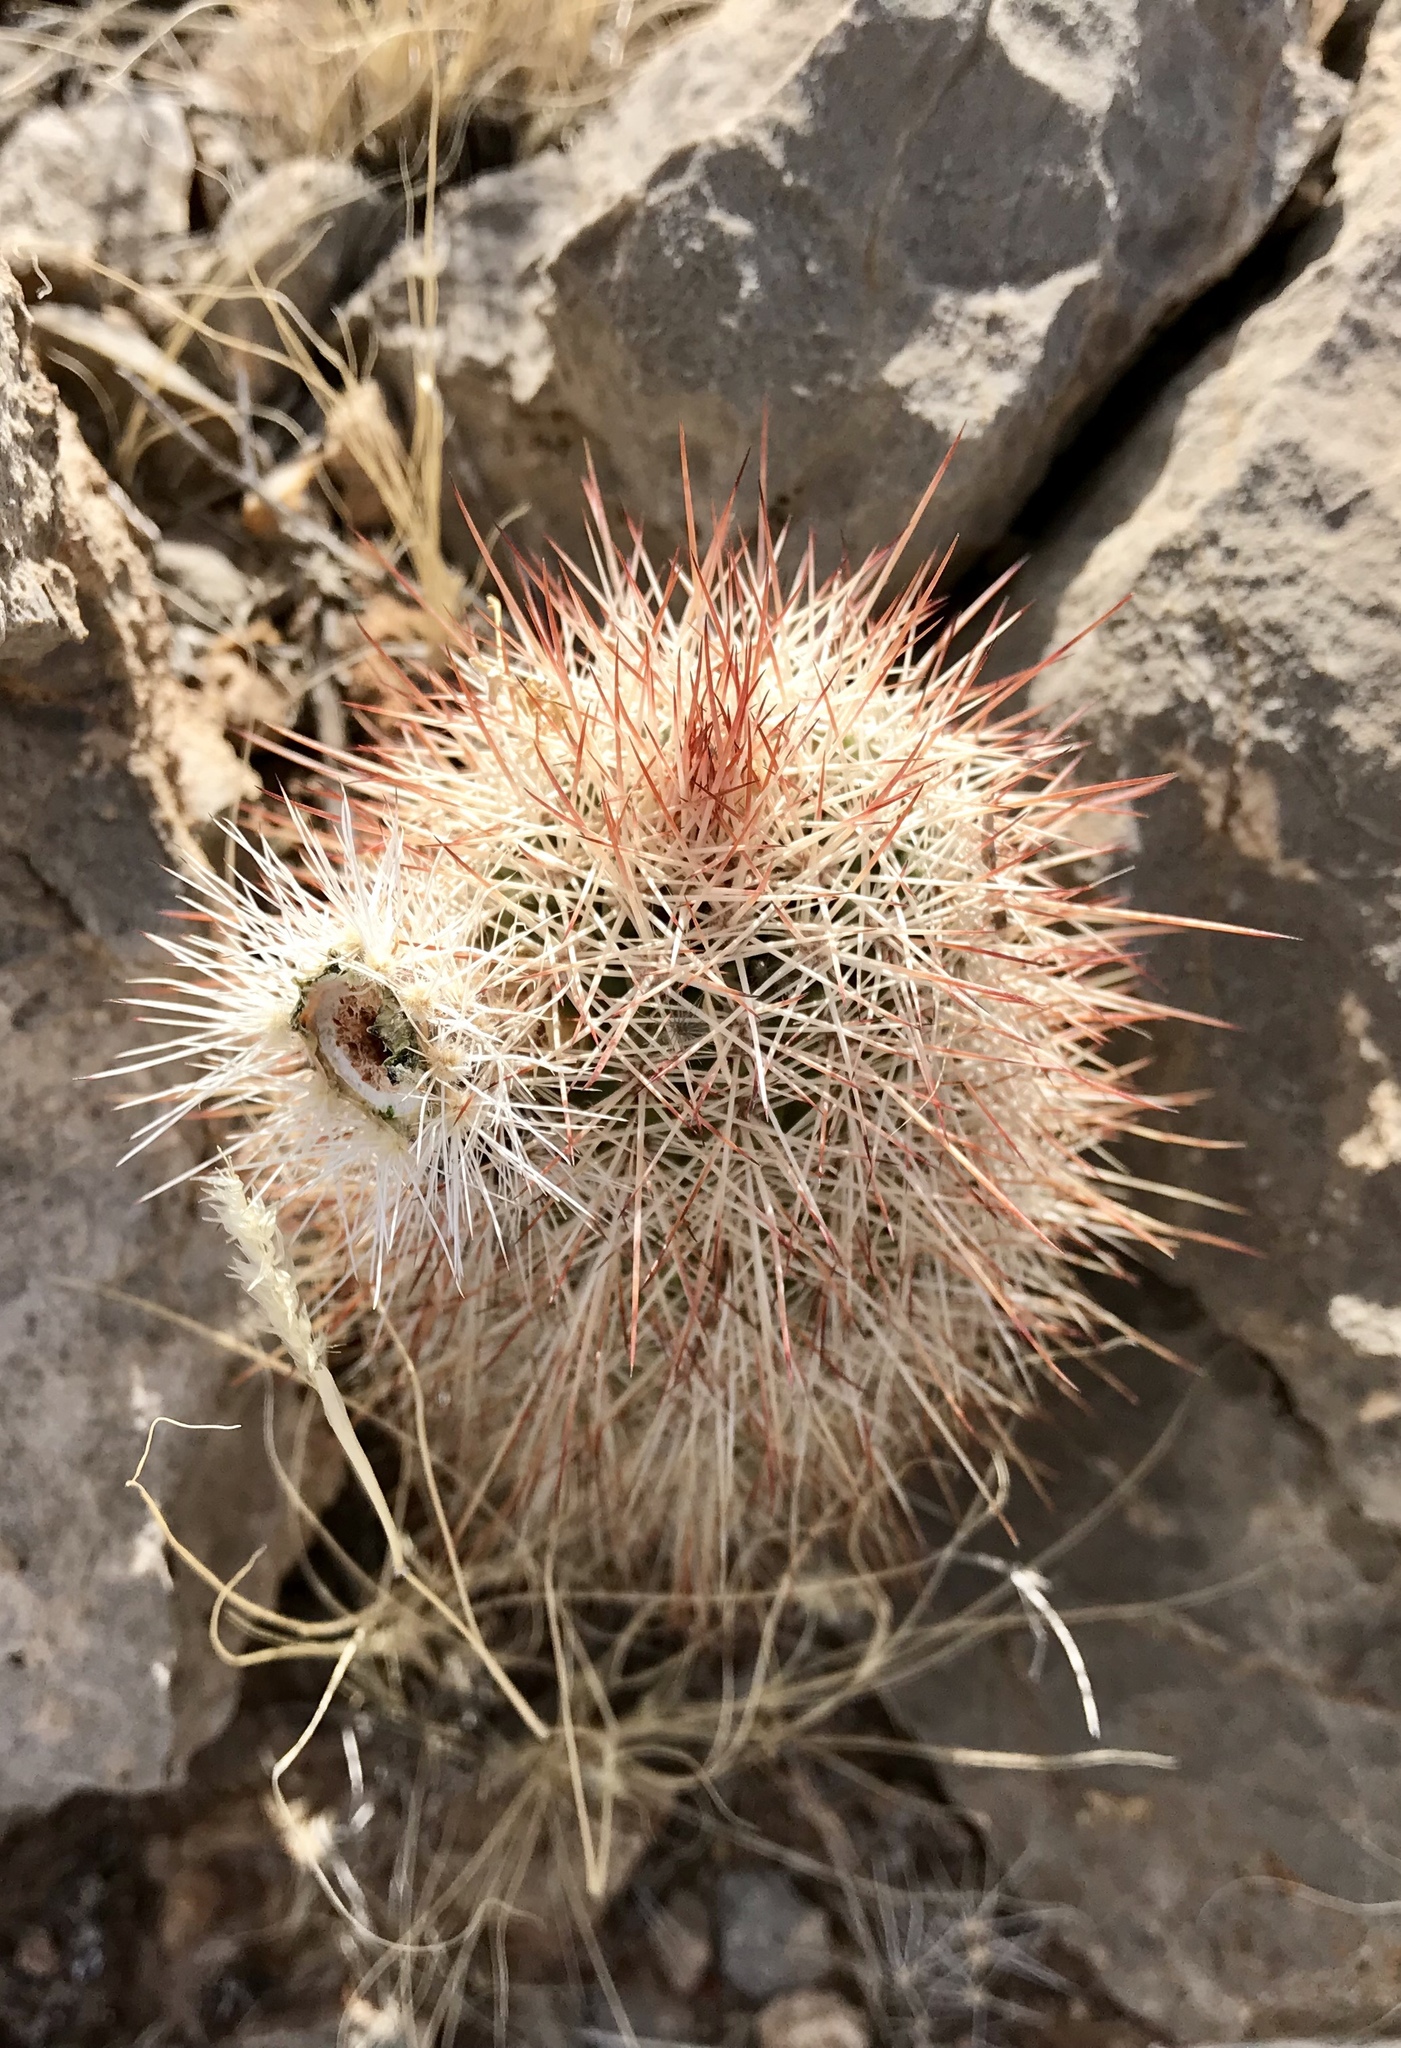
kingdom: Plantae
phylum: Tracheophyta
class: Magnoliopsida
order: Caryophyllales
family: Cactaceae
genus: Echinocereus
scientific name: Echinocereus roetteri
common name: Lloyd's hedgehog cactus
